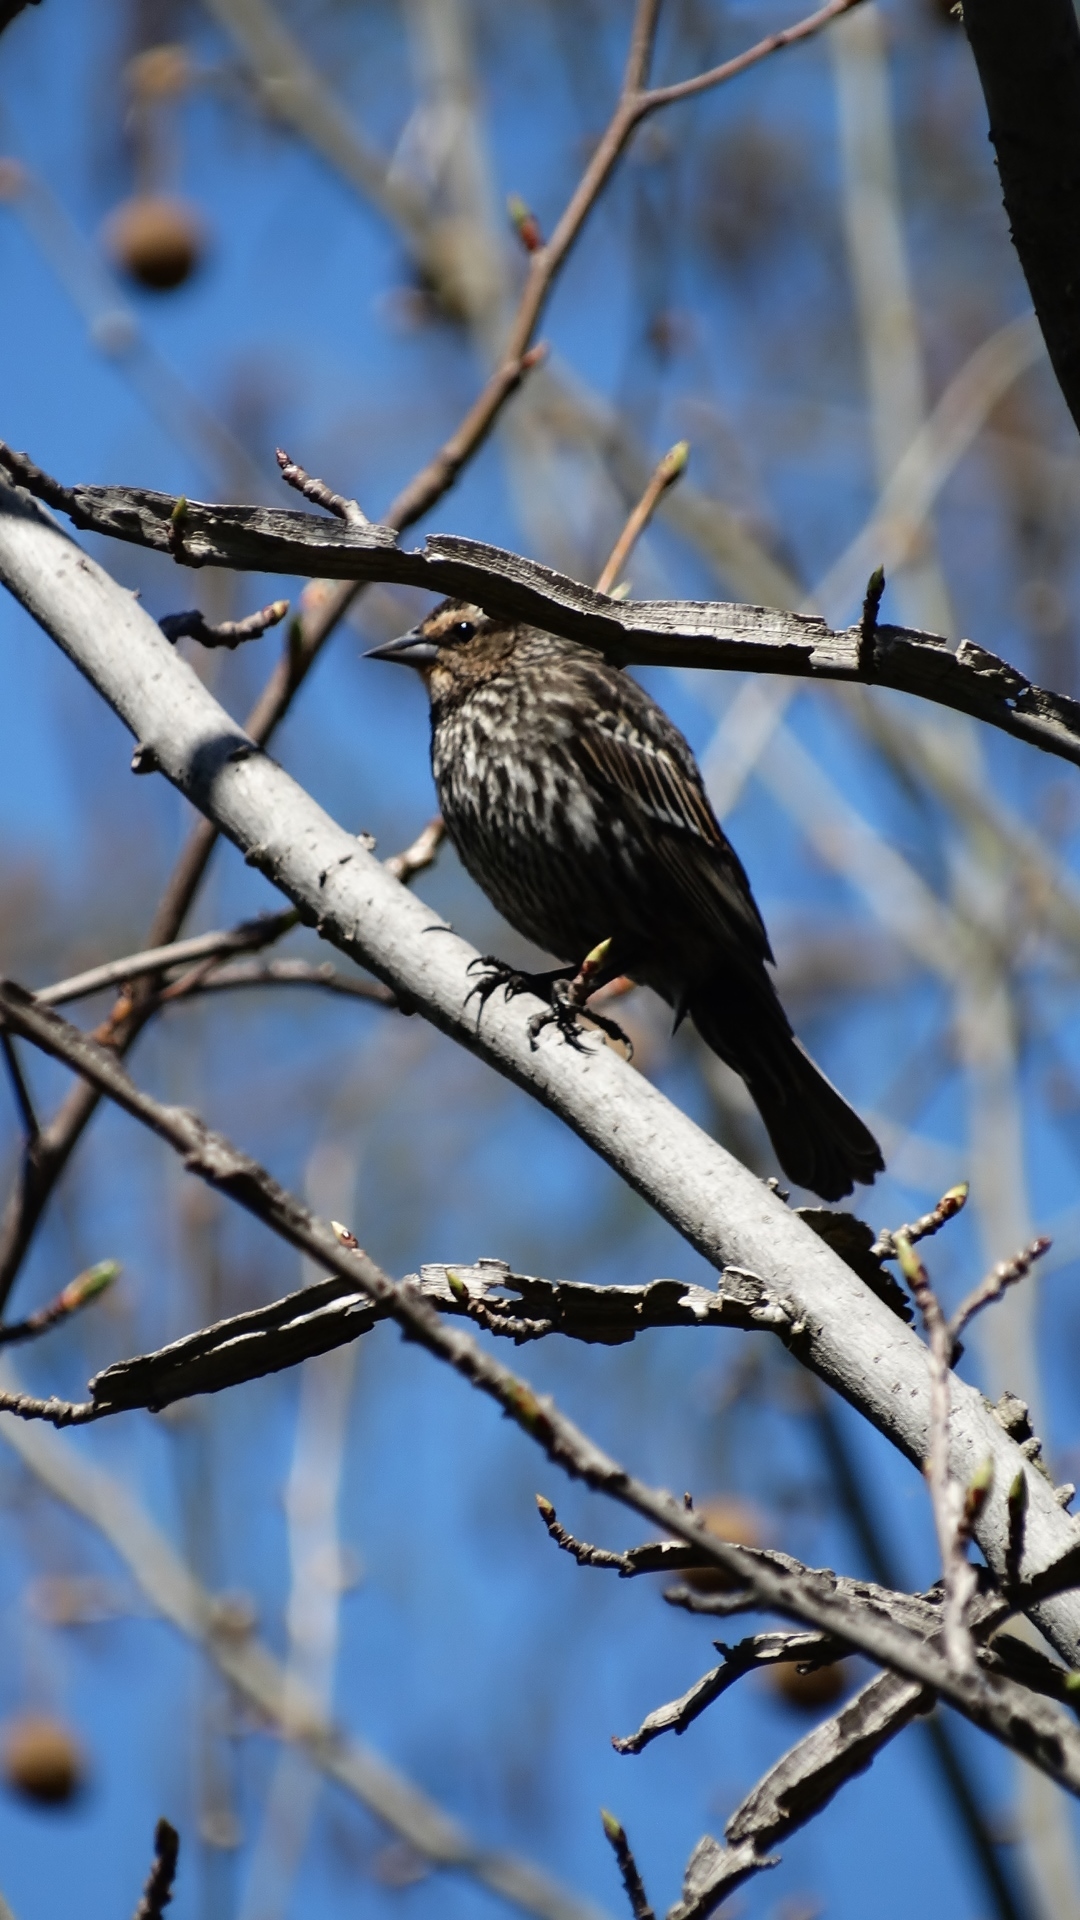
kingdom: Animalia
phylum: Chordata
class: Aves
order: Passeriformes
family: Icteridae
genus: Agelaius
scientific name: Agelaius phoeniceus
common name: Red-winged blackbird
